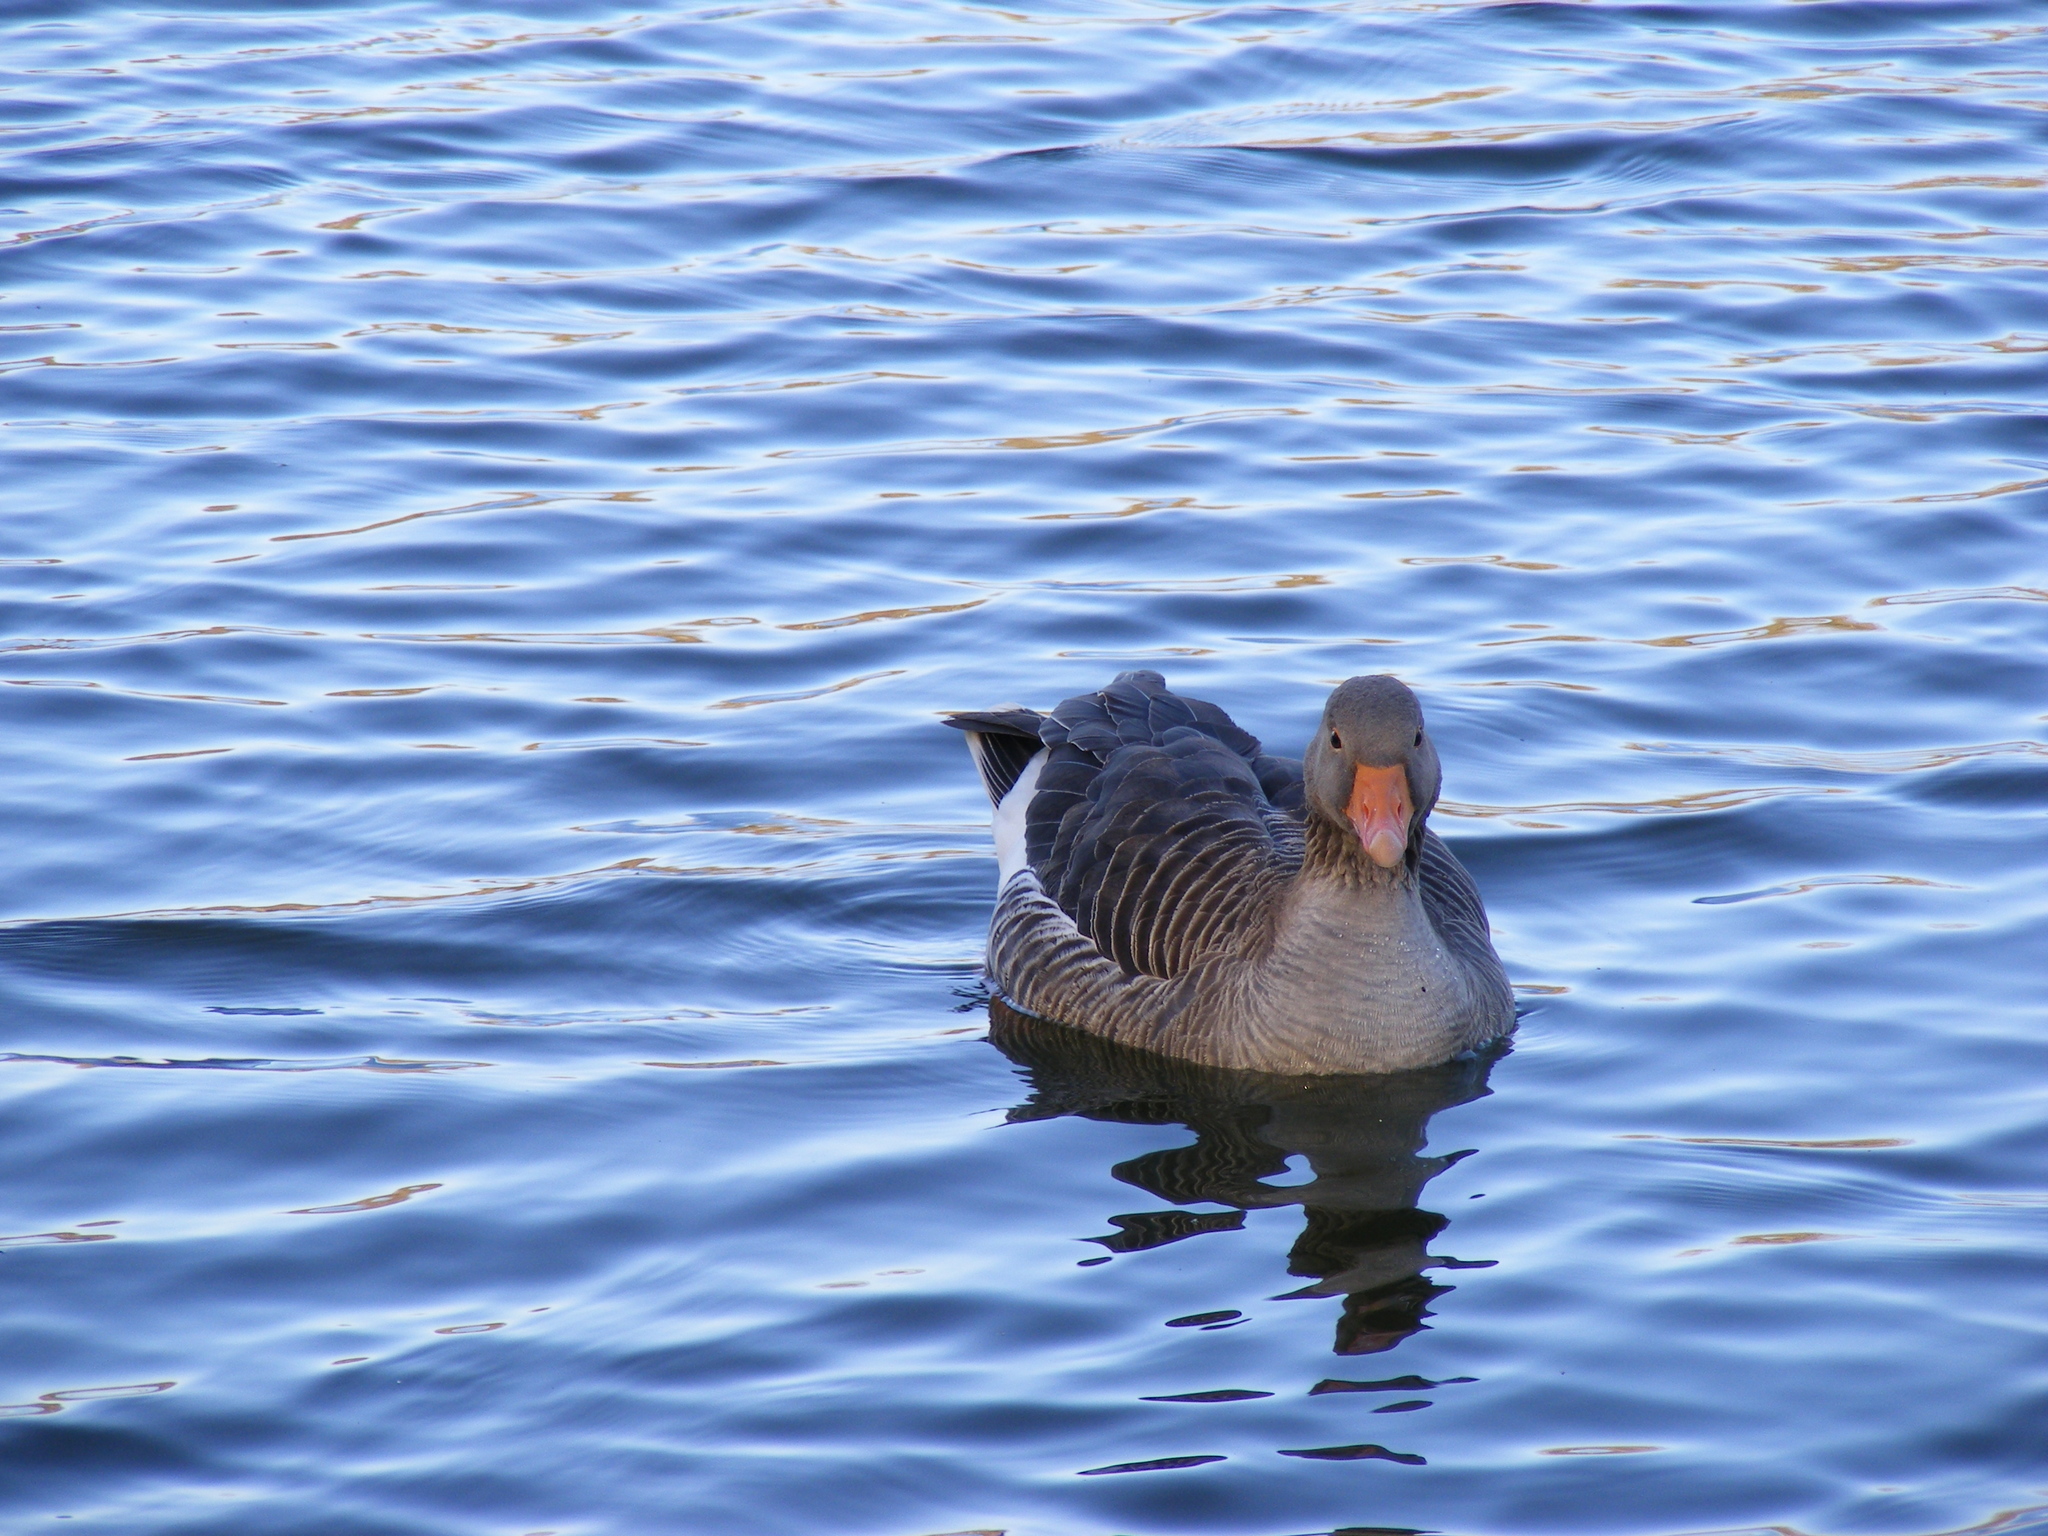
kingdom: Animalia
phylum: Chordata
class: Aves
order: Anseriformes
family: Anatidae
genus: Anser
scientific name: Anser anser
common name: Greylag goose
